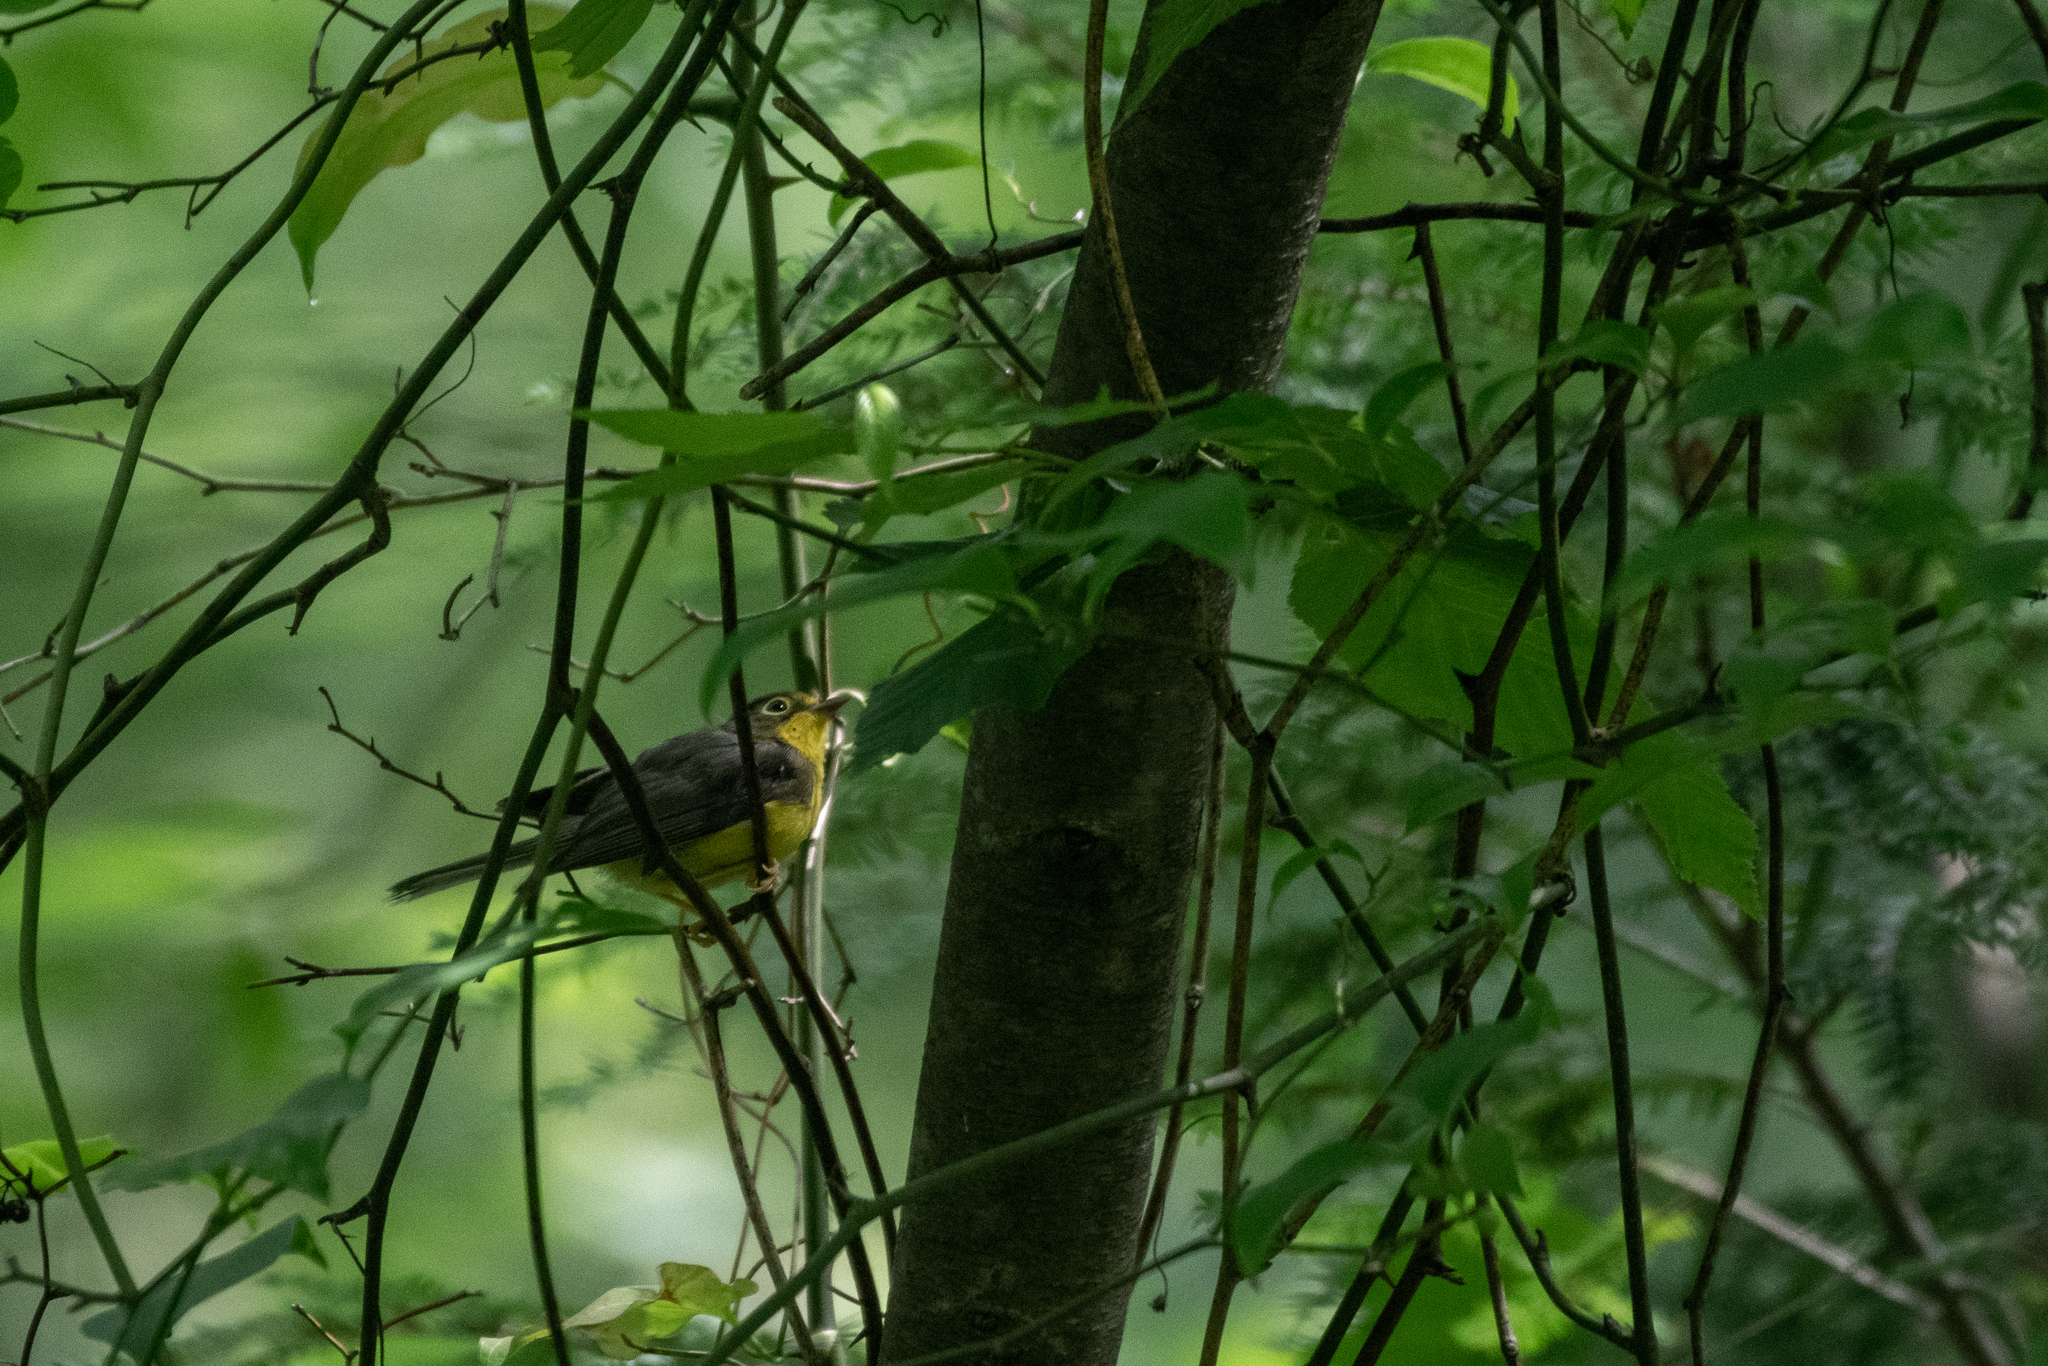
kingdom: Animalia
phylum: Chordata
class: Aves
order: Passeriformes
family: Parulidae
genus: Cardellina
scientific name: Cardellina canadensis
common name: Canada warbler
